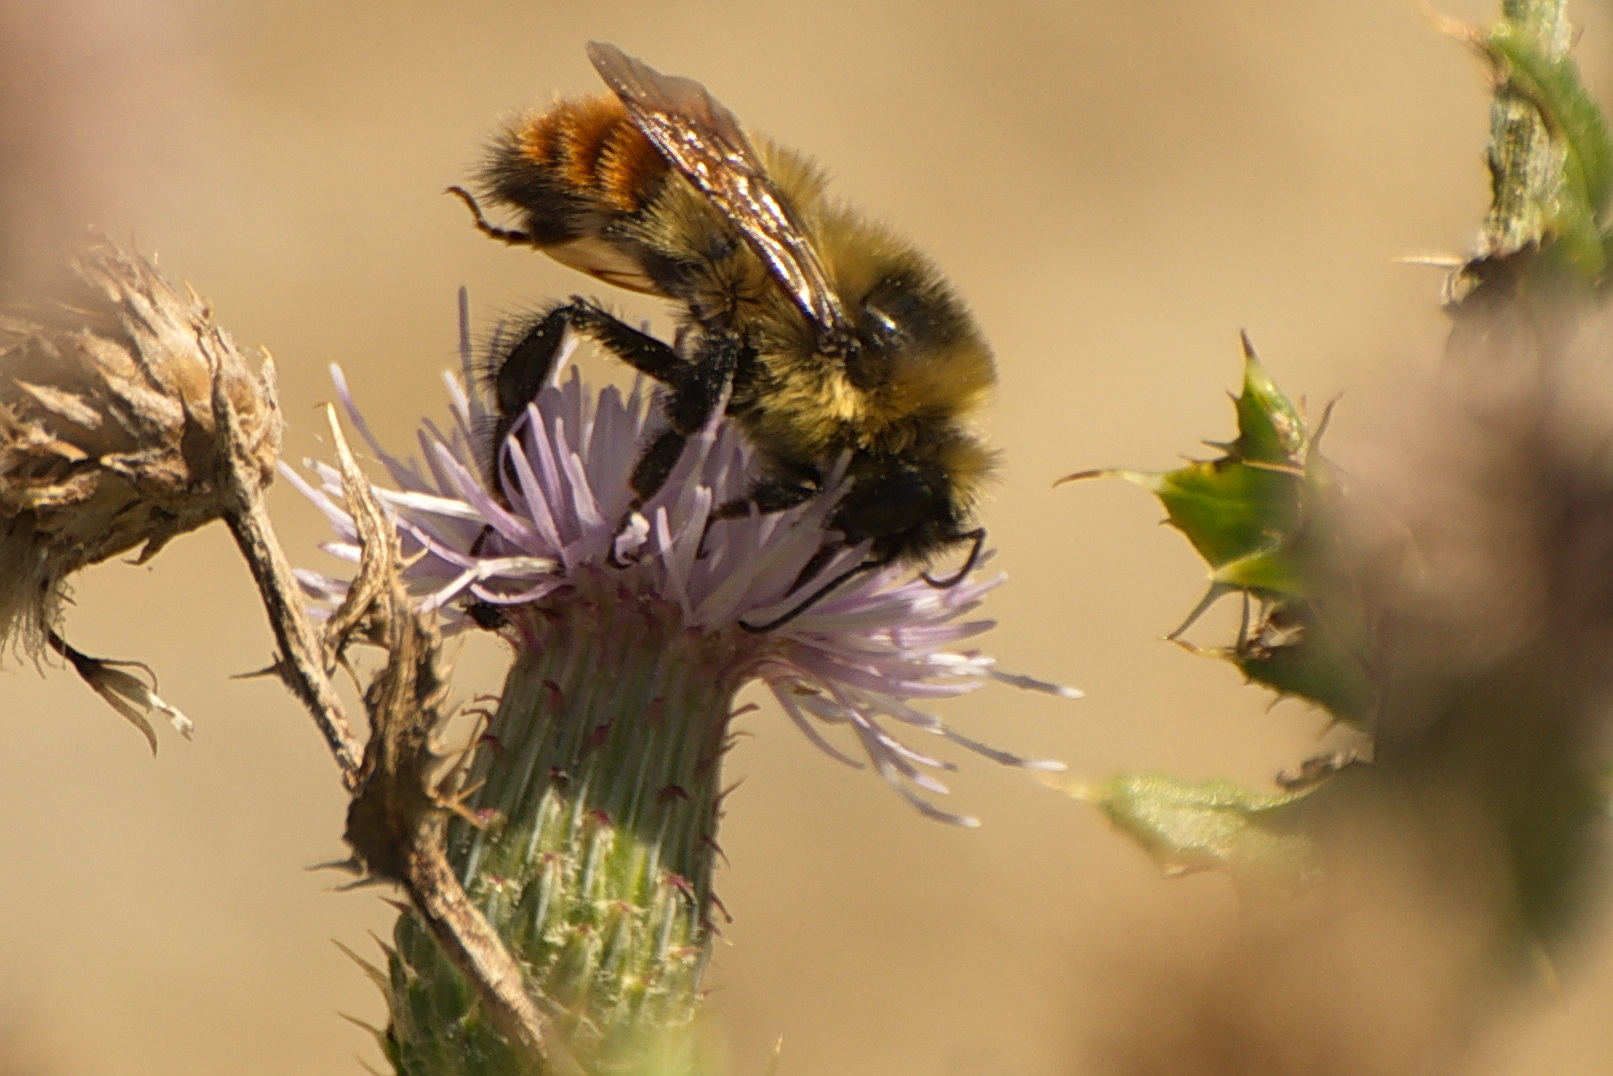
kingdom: Animalia
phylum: Arthropoda
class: Insecta
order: Hymenoptera
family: Apidae
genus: Bombus
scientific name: Bombus rufocinctus
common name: Red-belted bumble bee
